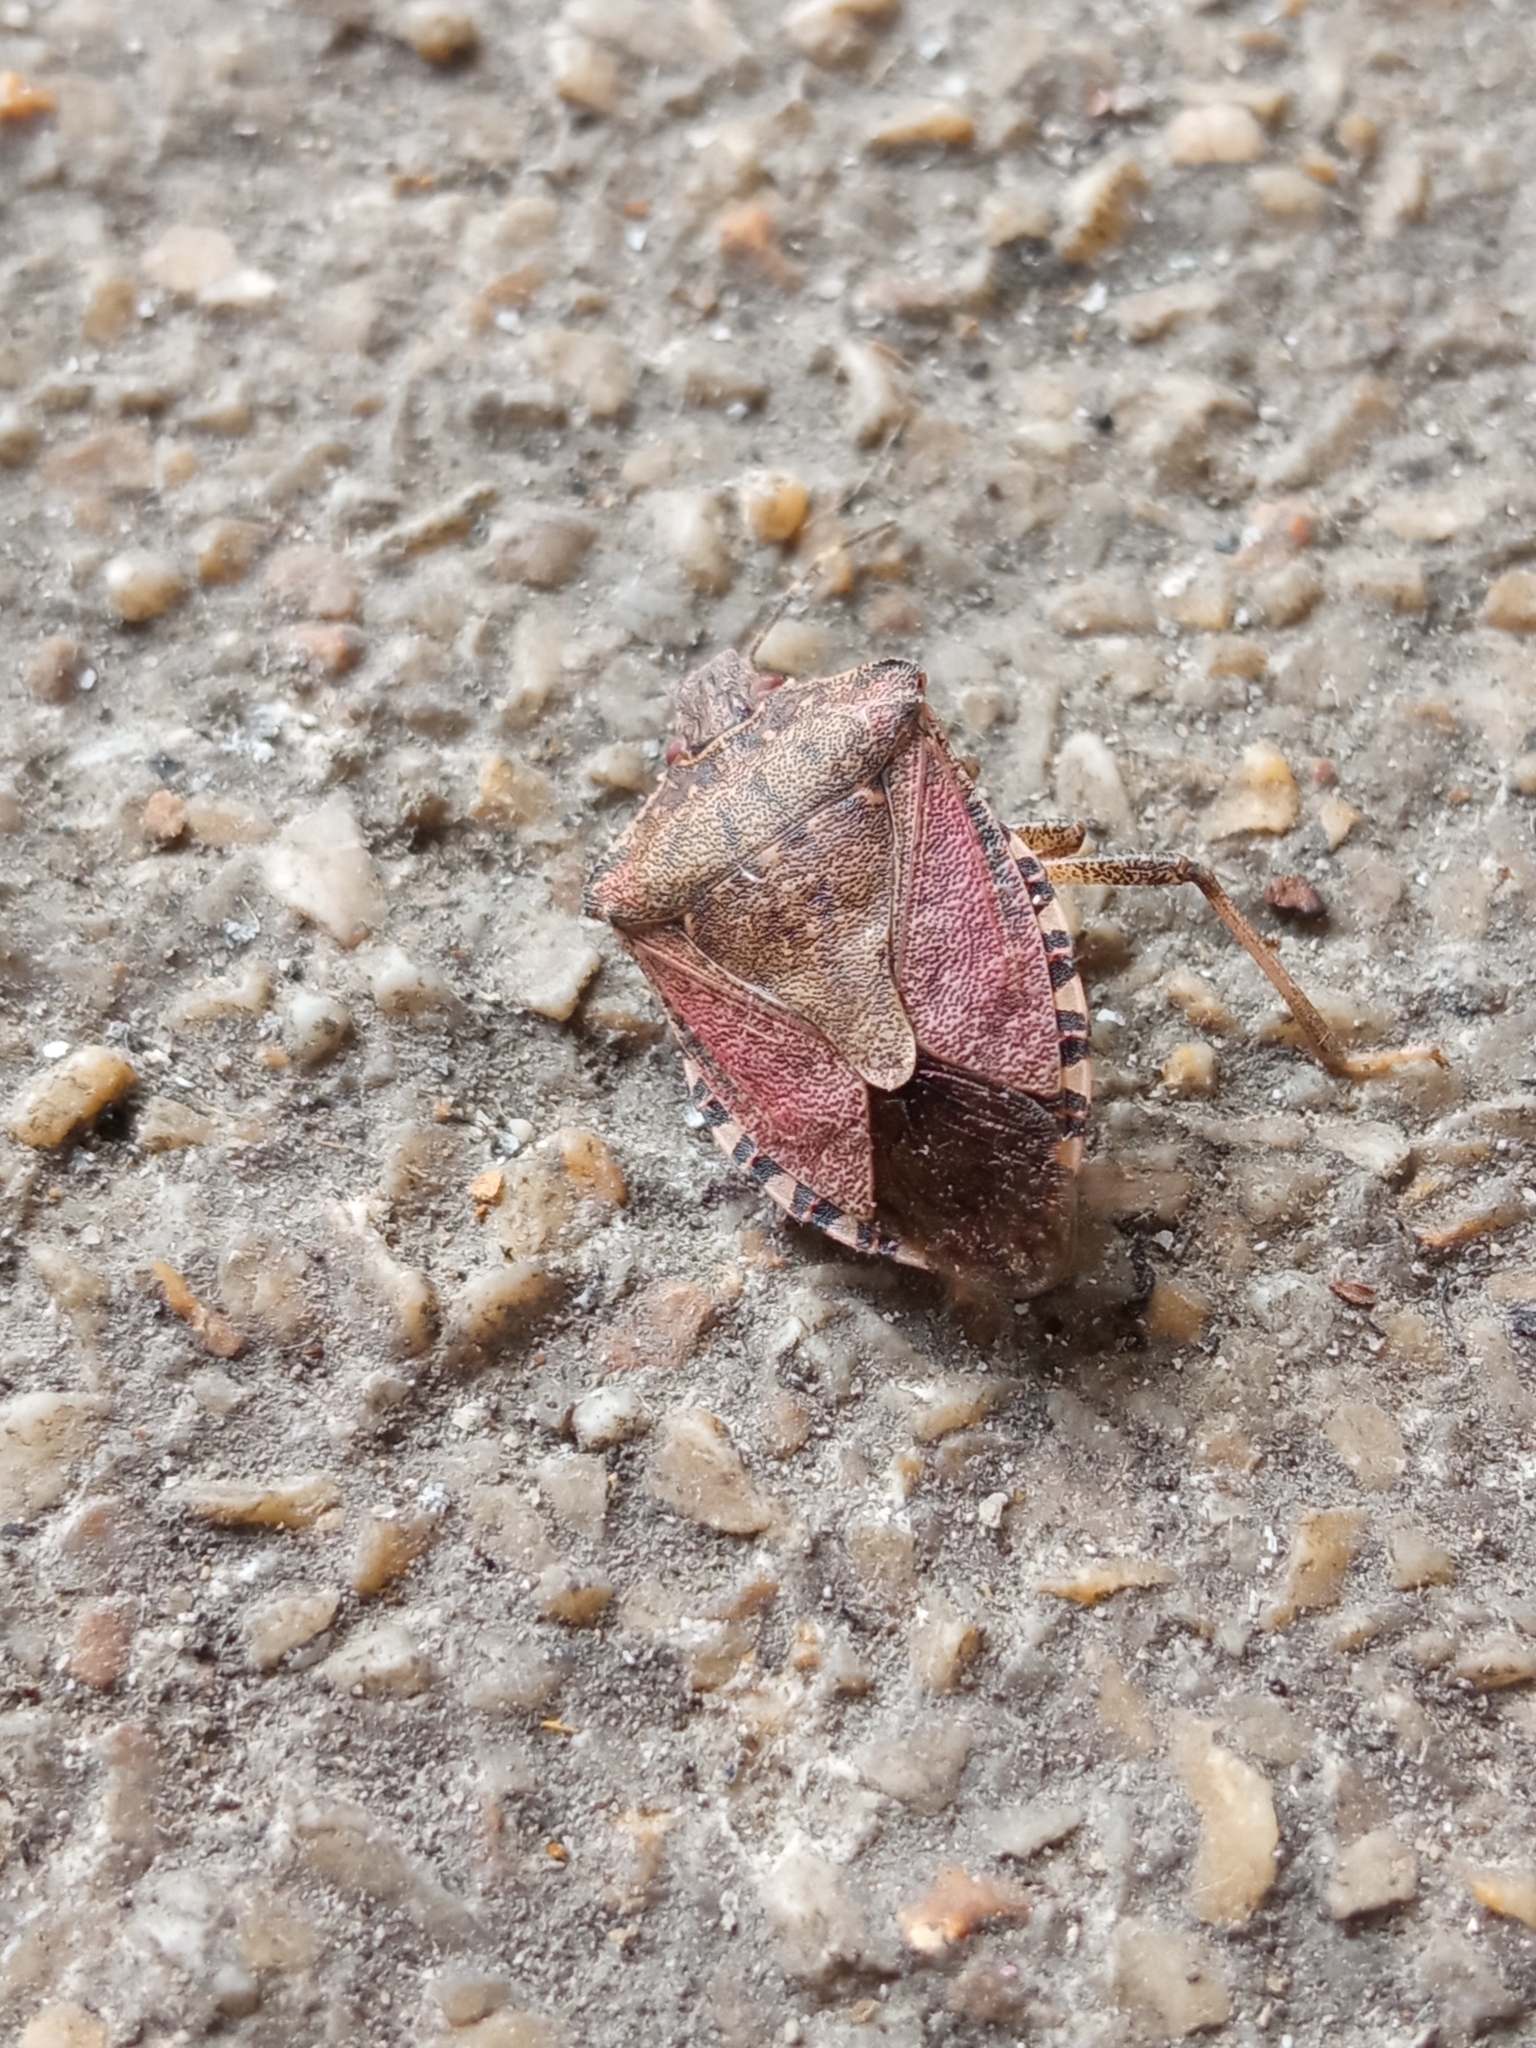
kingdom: Animalia
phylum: Arthropoda
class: Insecta
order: Hemiptera
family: Pentatomidae
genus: Halyomorpha
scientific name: Halyomorpha halys
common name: Brown marmorated stink bug
